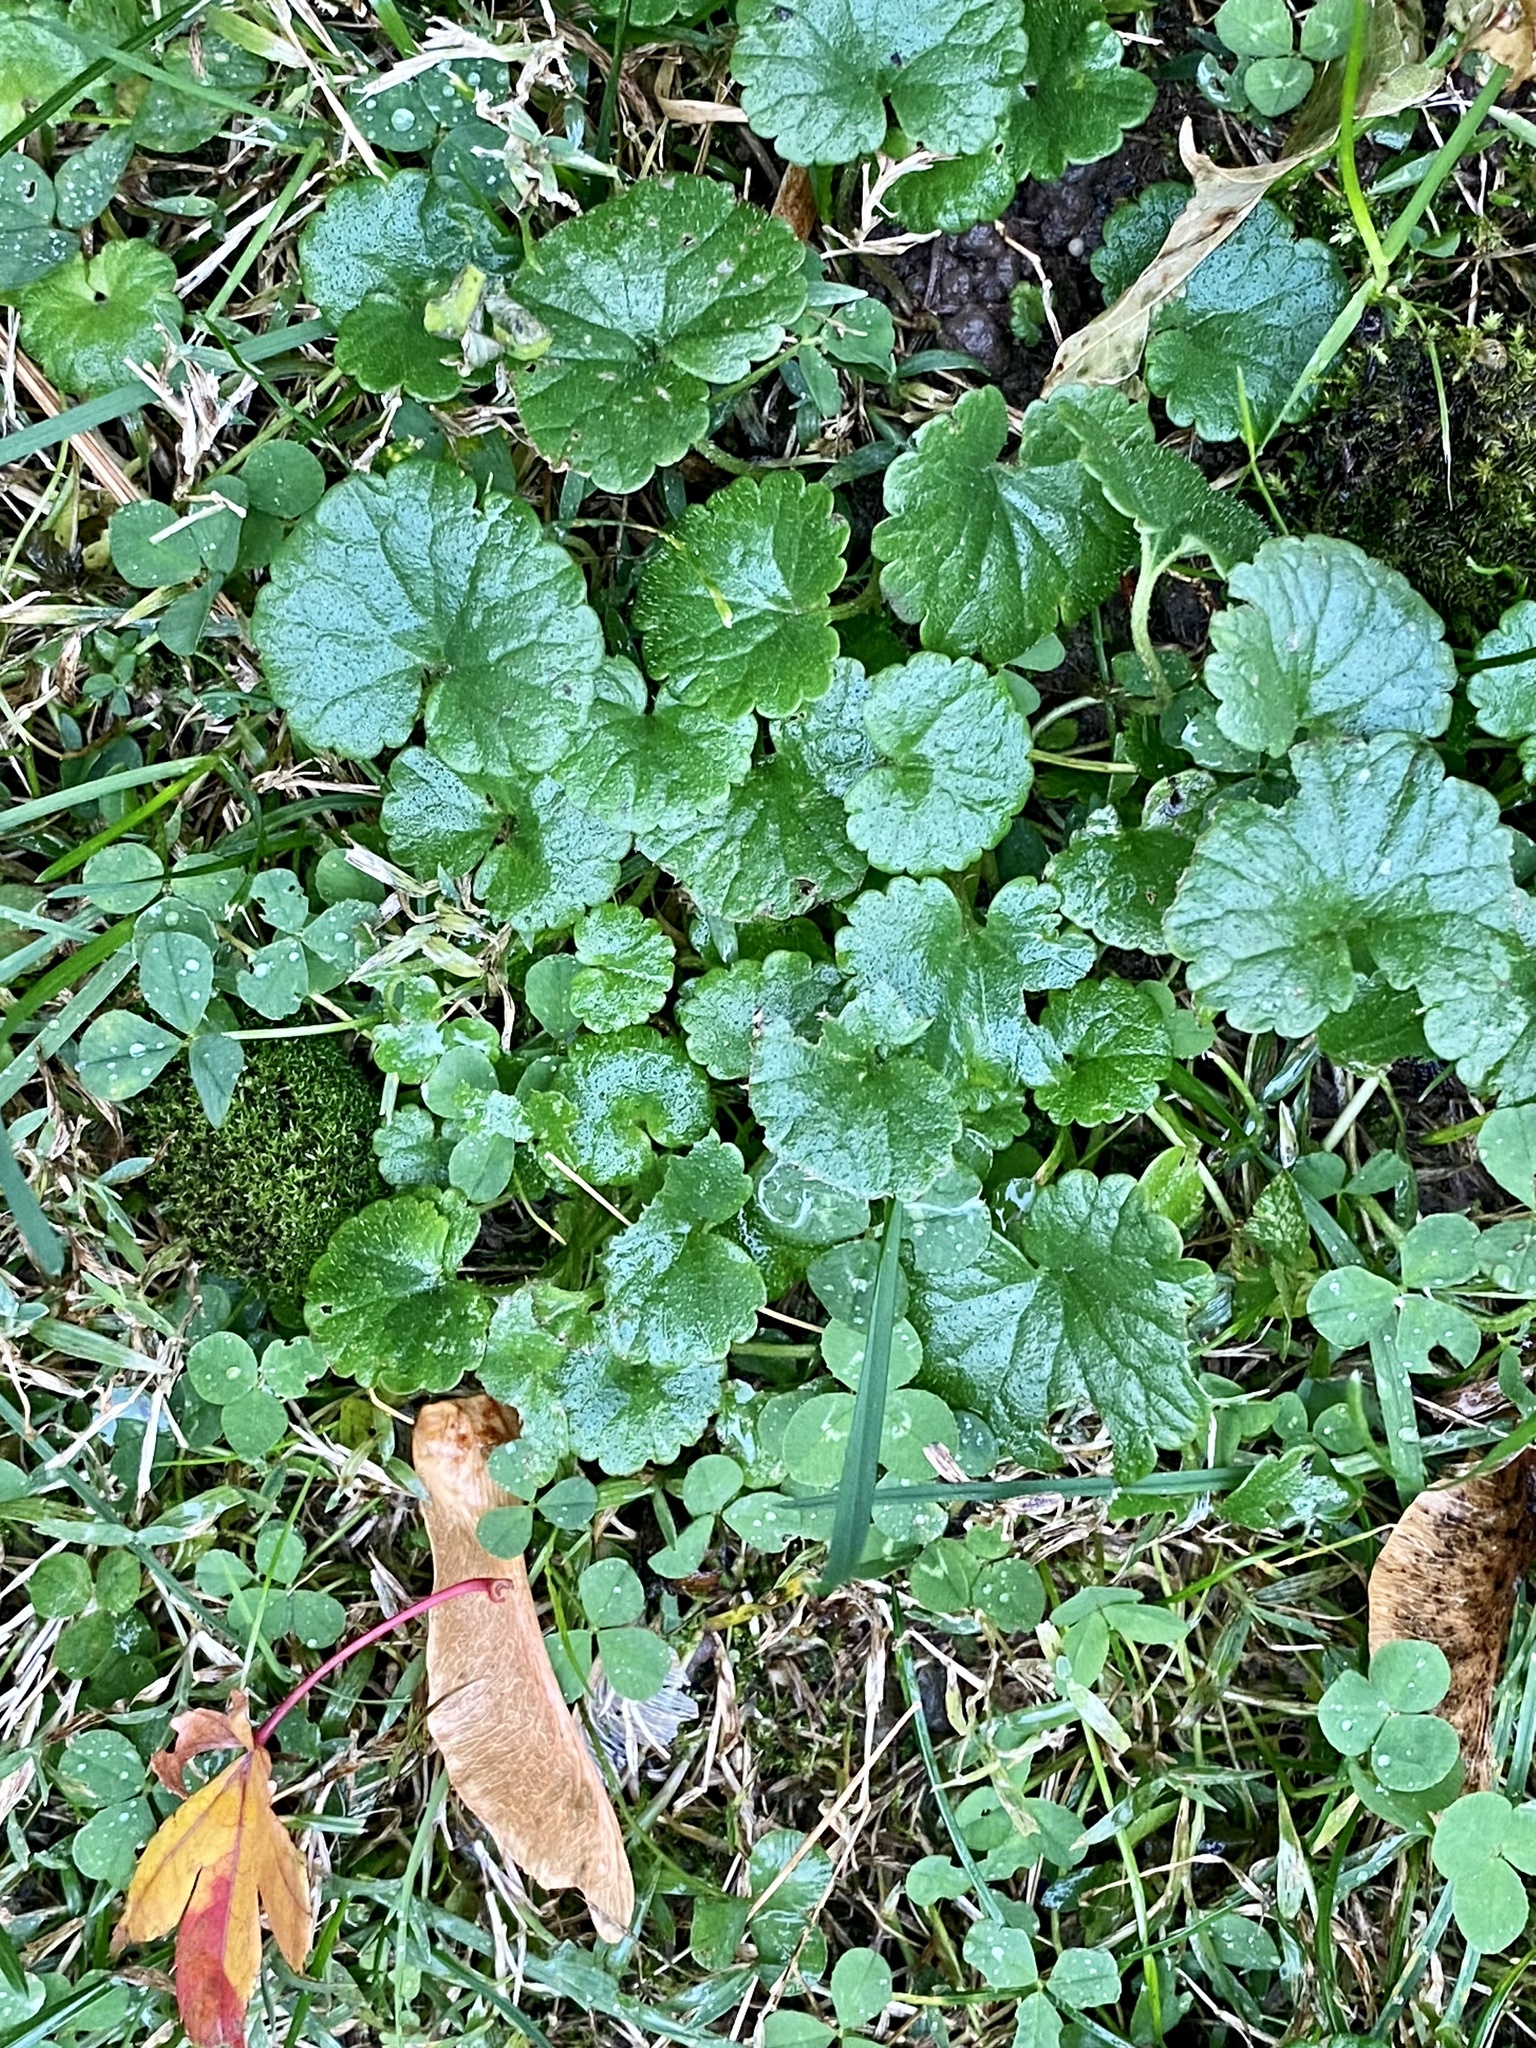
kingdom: Plantae
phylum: Tracheophyta
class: Magnoliopsida
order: Lamiales
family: Lamiaceae
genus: Glechoma
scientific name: Glechoma hederacea
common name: Ground ivy
